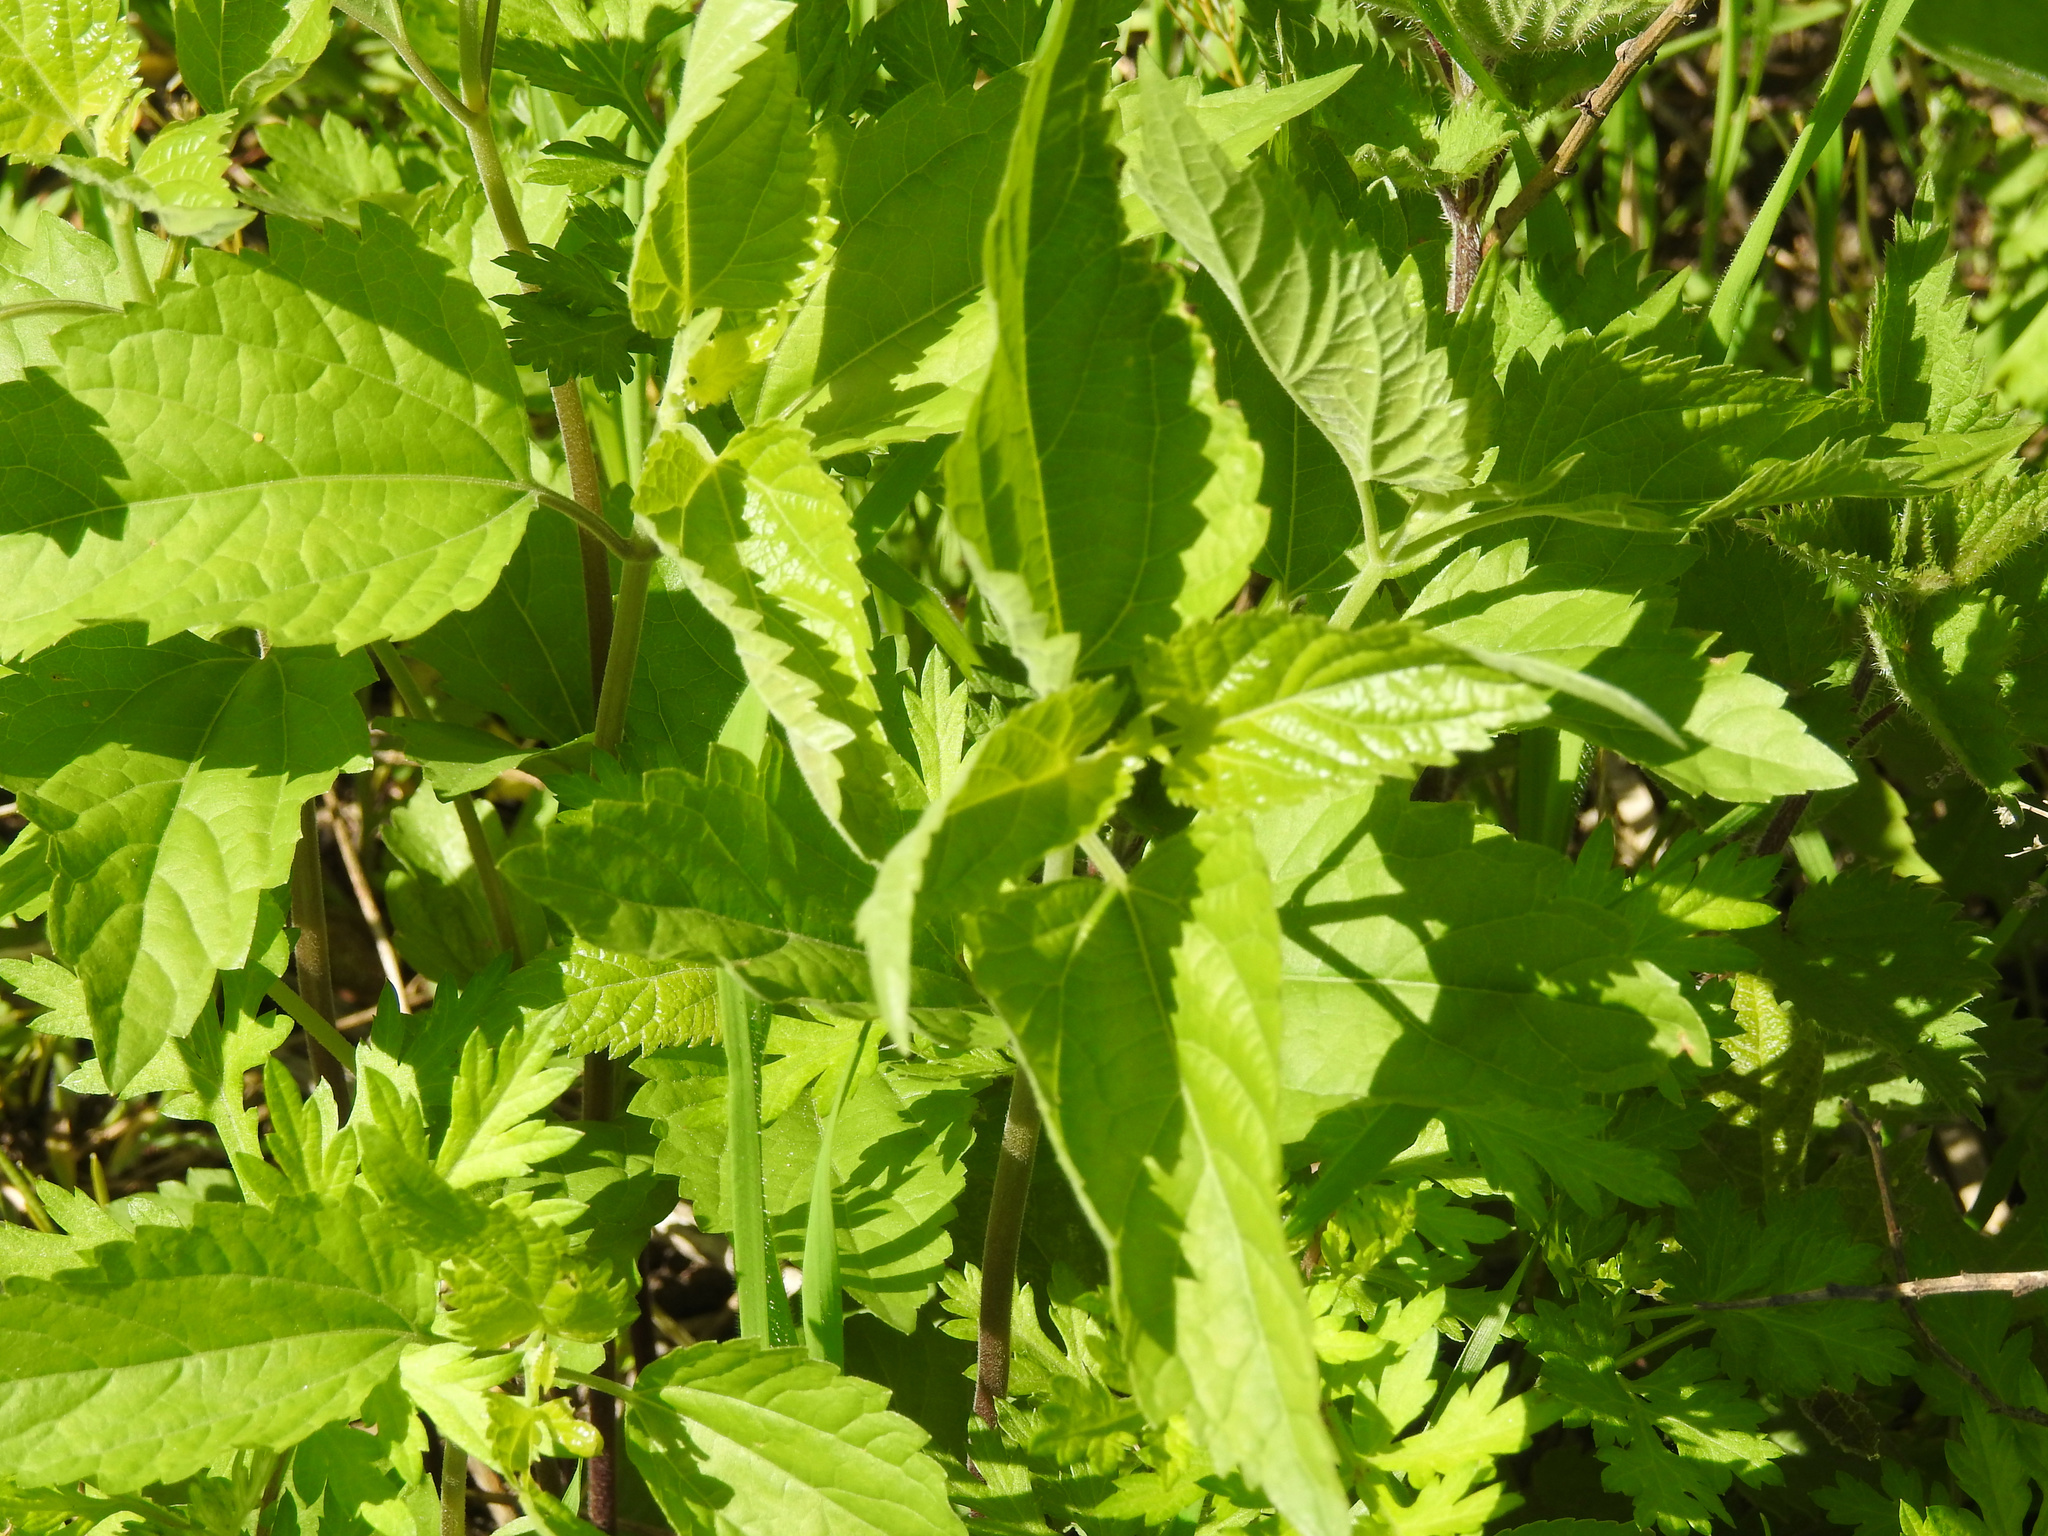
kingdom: Plantae
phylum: Tracheophyta
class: Magnoliopsida
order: Asterales
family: Asteraceae
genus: Eupatorium
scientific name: Eupatorium serotinum
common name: Late boneset
